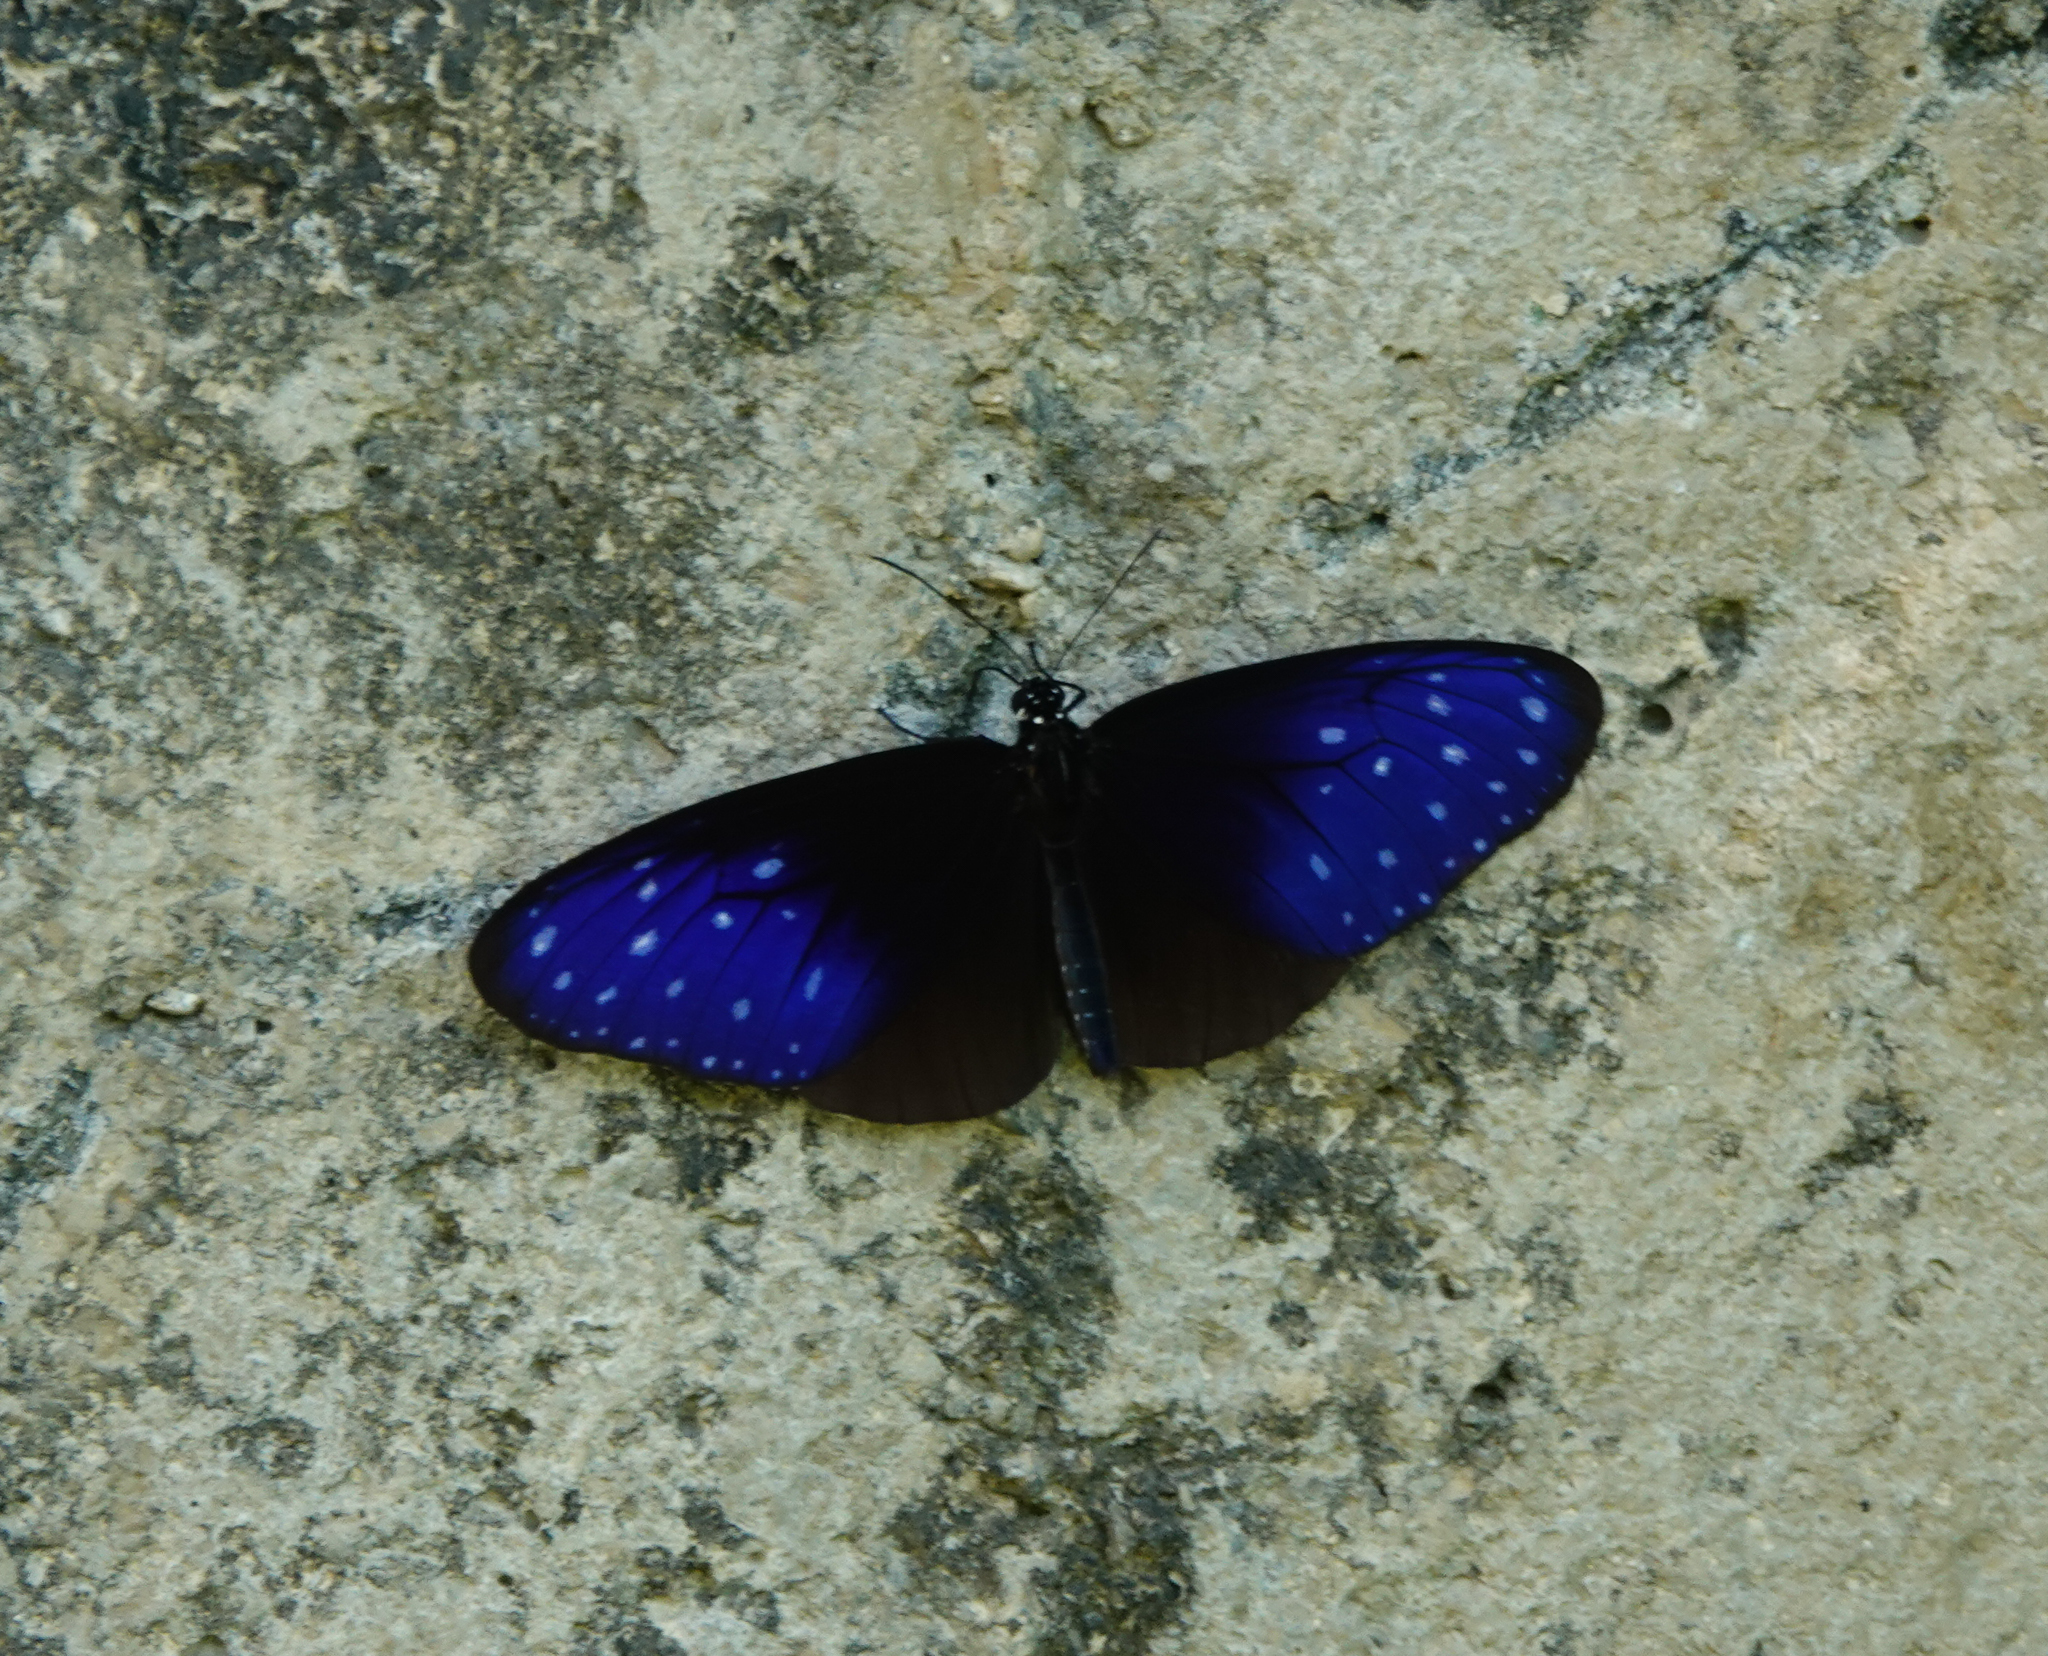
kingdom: Animalia
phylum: Arthropoda
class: Insecta
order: Lepidoptera
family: Nymphalidae
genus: Euploea
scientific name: Euploea midamus
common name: Blue-spotted crow butterfly
